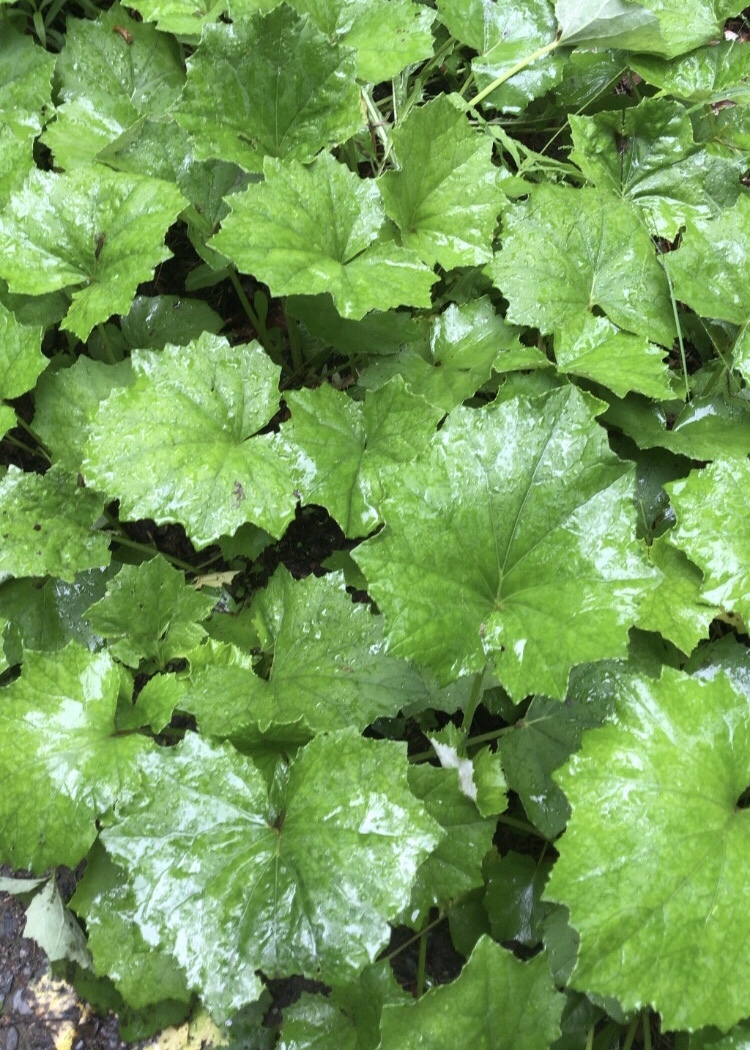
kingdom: Plantae
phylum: Tracheophyta
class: Magnoliopsida
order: Asterales
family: Asteraceae
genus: Tussilago
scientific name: Tussilago farfara
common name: Coltsfoot
